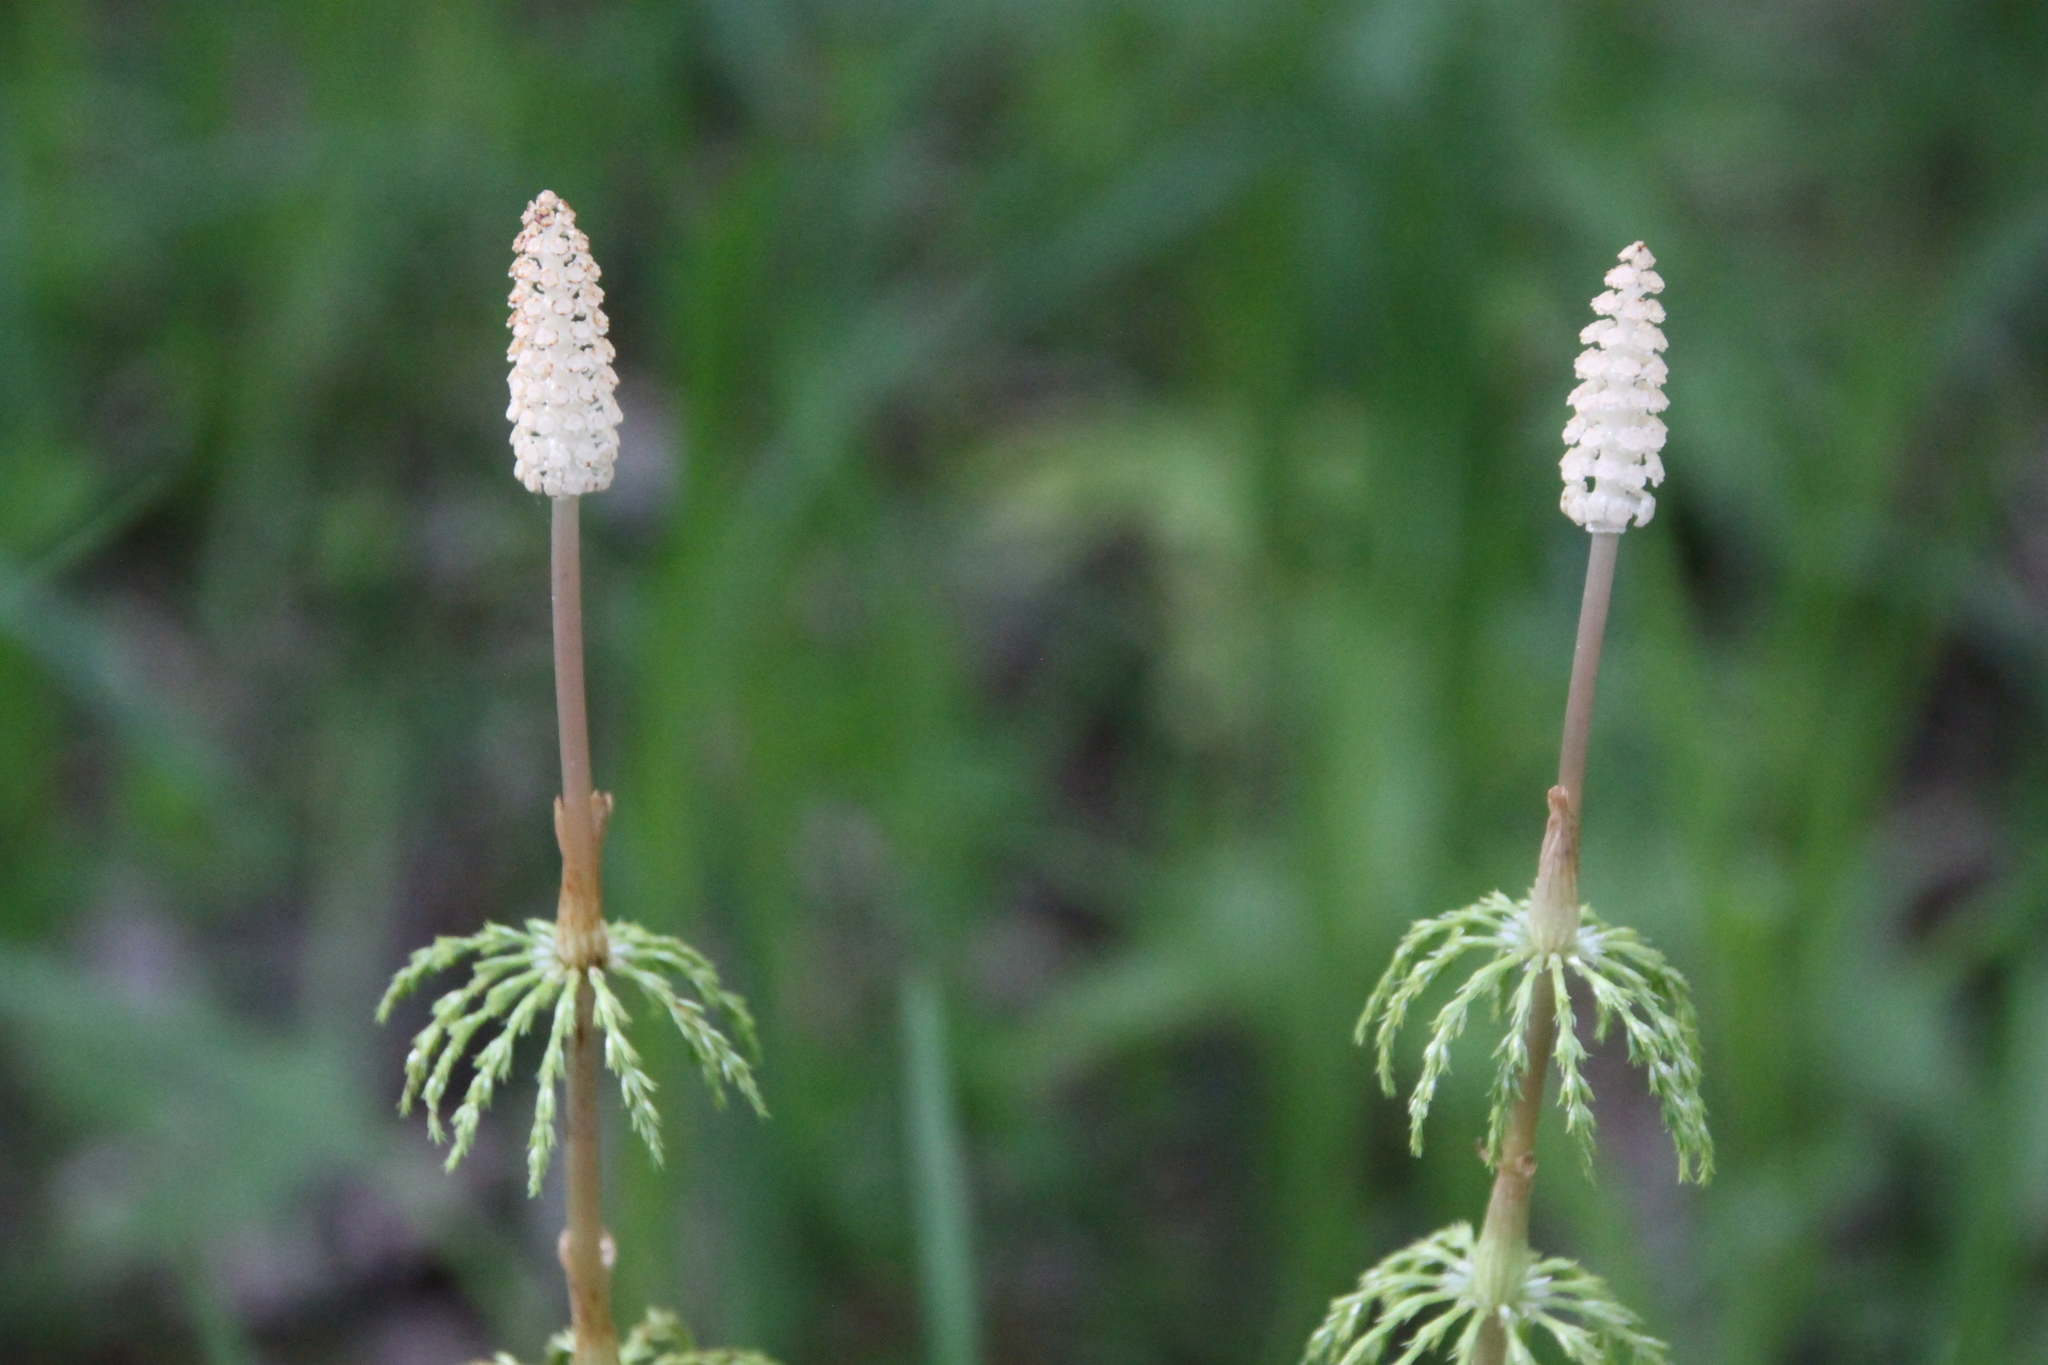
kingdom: Plantae
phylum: Tracheophyta
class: Polypodiopsida
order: Equisetales
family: Equisetaceae
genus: Equisetum
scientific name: Equisetum sylvaticum
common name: Wood horsetail
